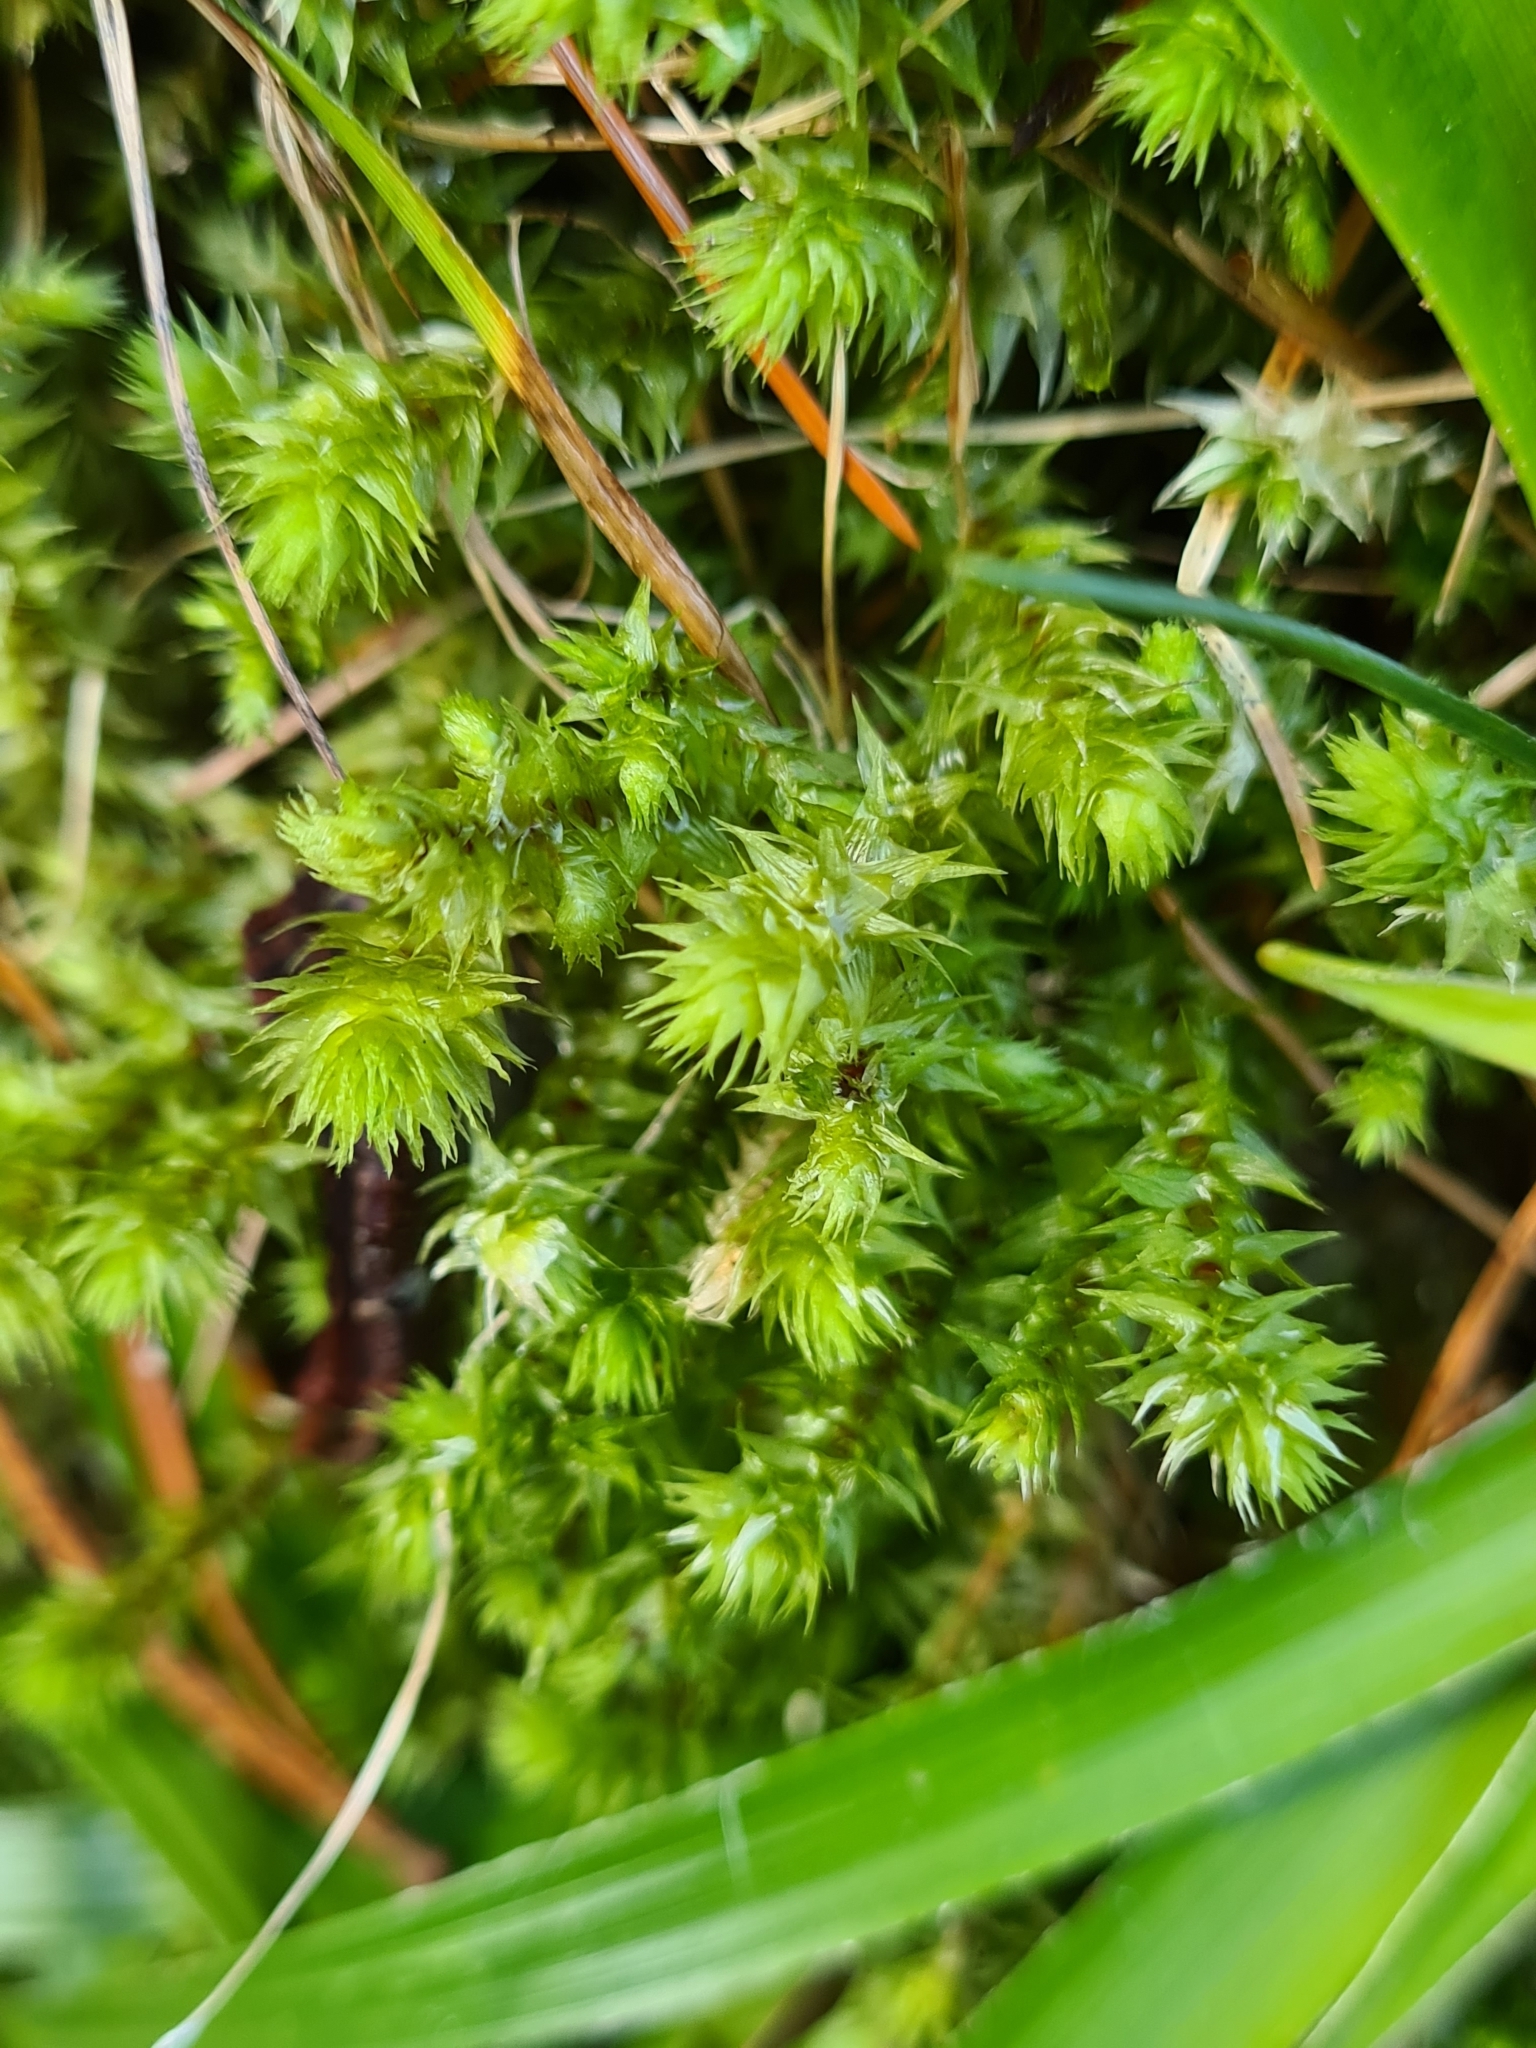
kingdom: Plantae
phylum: Bryophyta
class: Bryopsida
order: Hypnales
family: Hylocomiaceae
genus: Hylocomiadelphus
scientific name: Hylocomiadelphus triquetrus
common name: Rough goose neck moss
